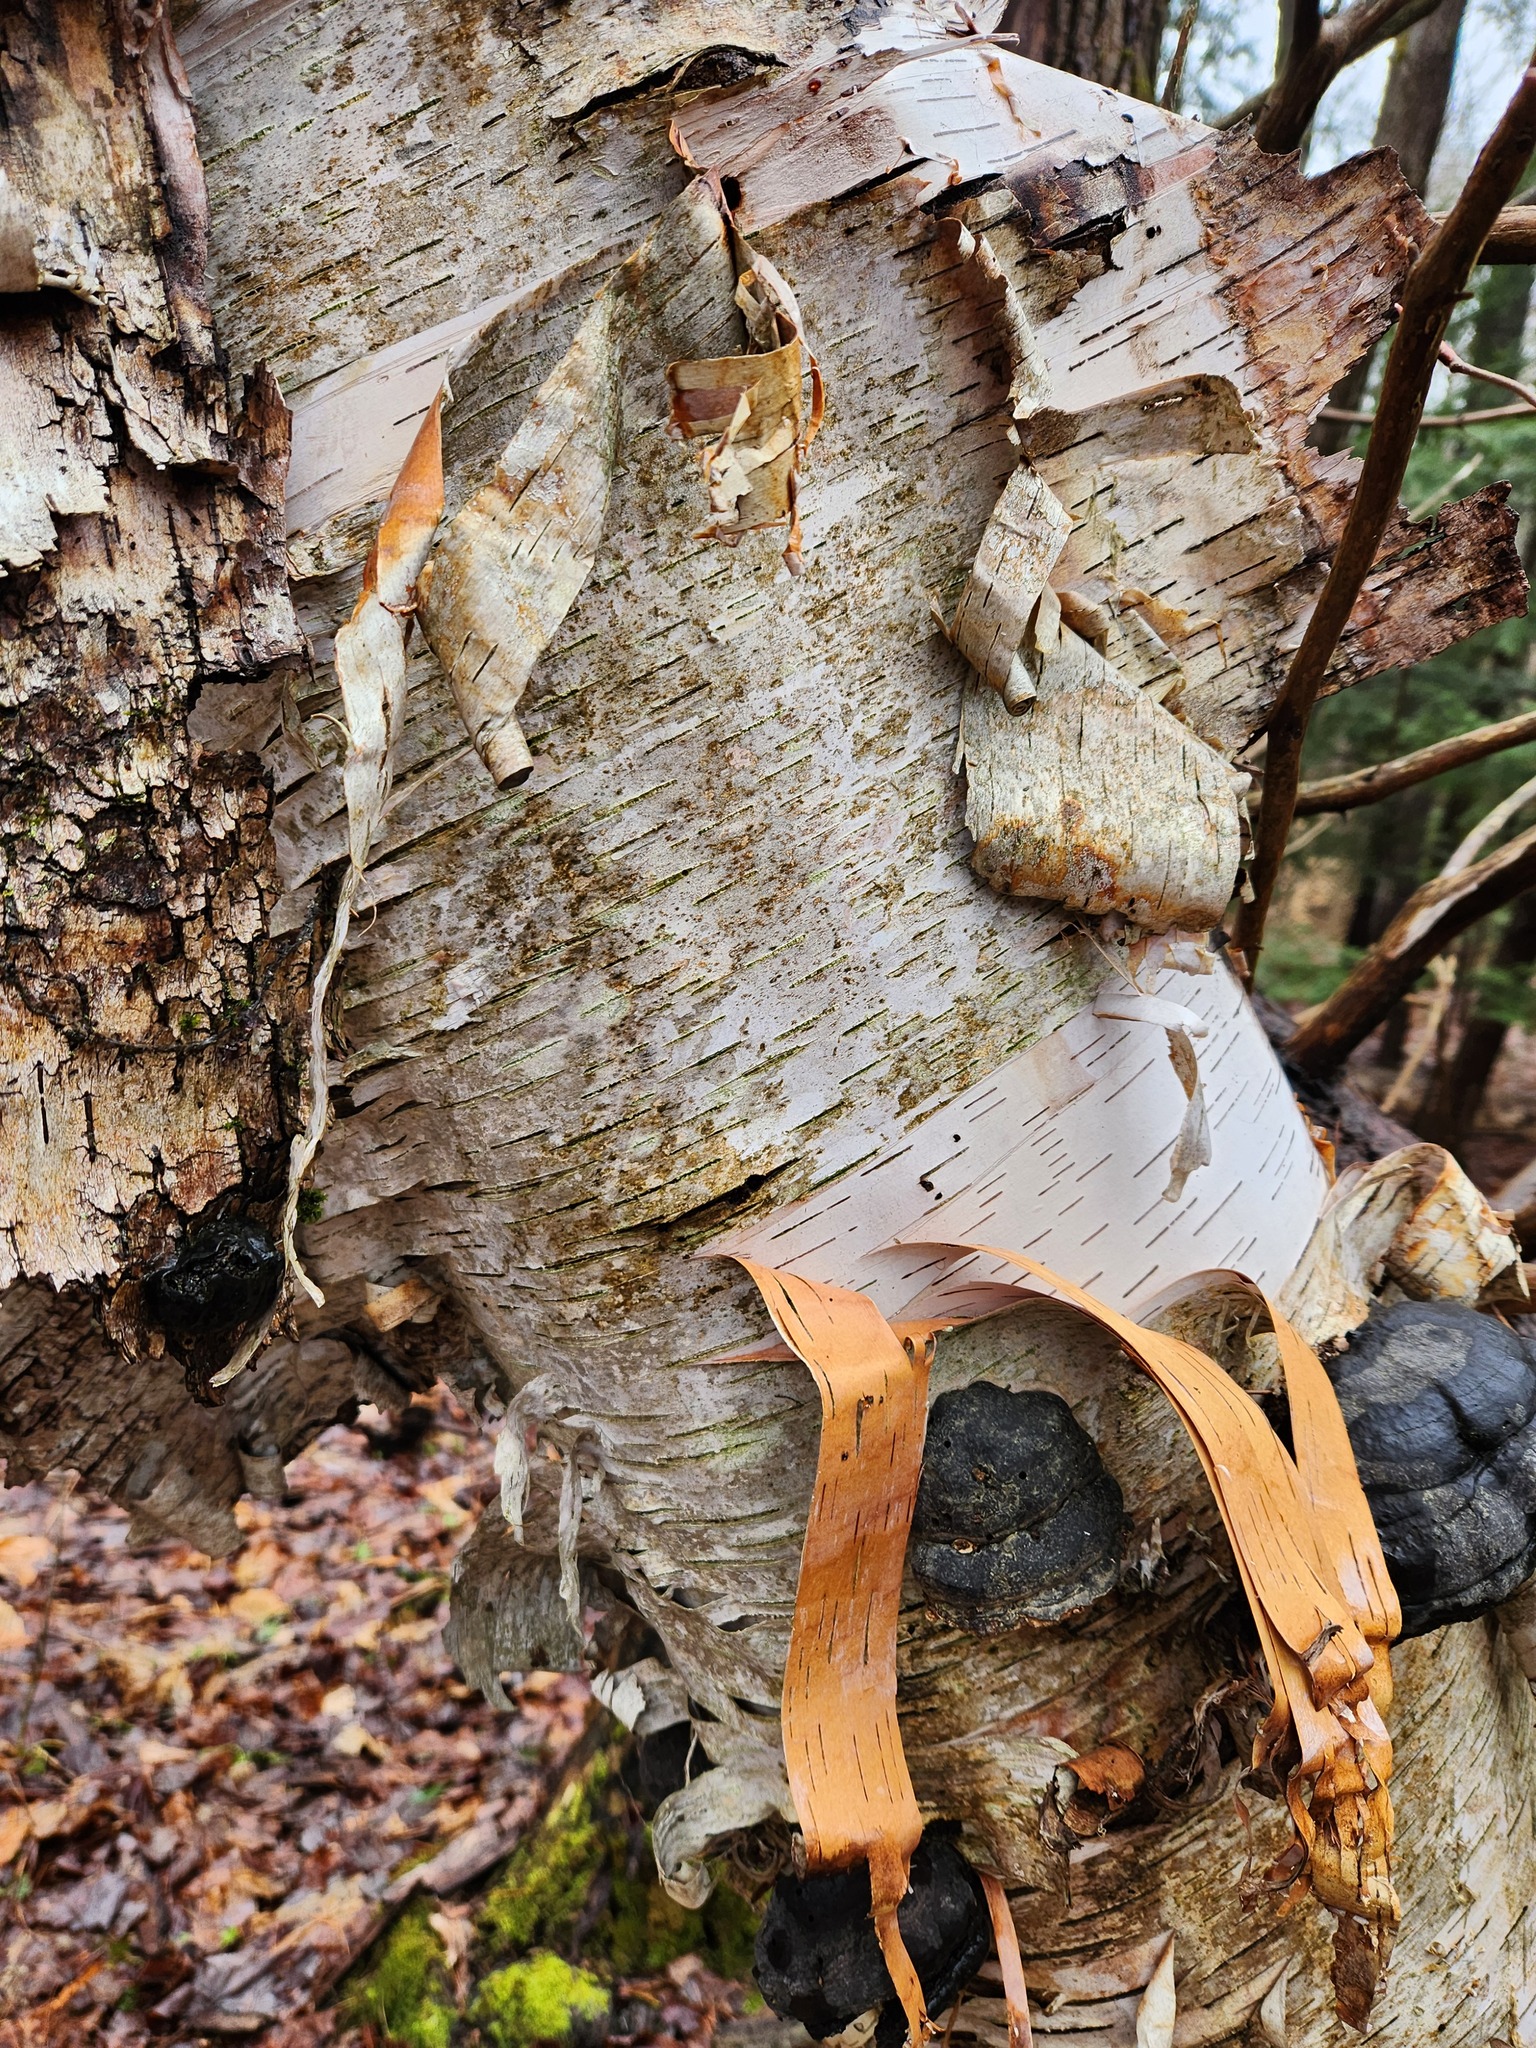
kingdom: Plantae
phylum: Tracheophyta
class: Magnoliopsida
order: Fagales
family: Betulaceae
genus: Betula
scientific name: Betula papyrifera
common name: Paper birch
